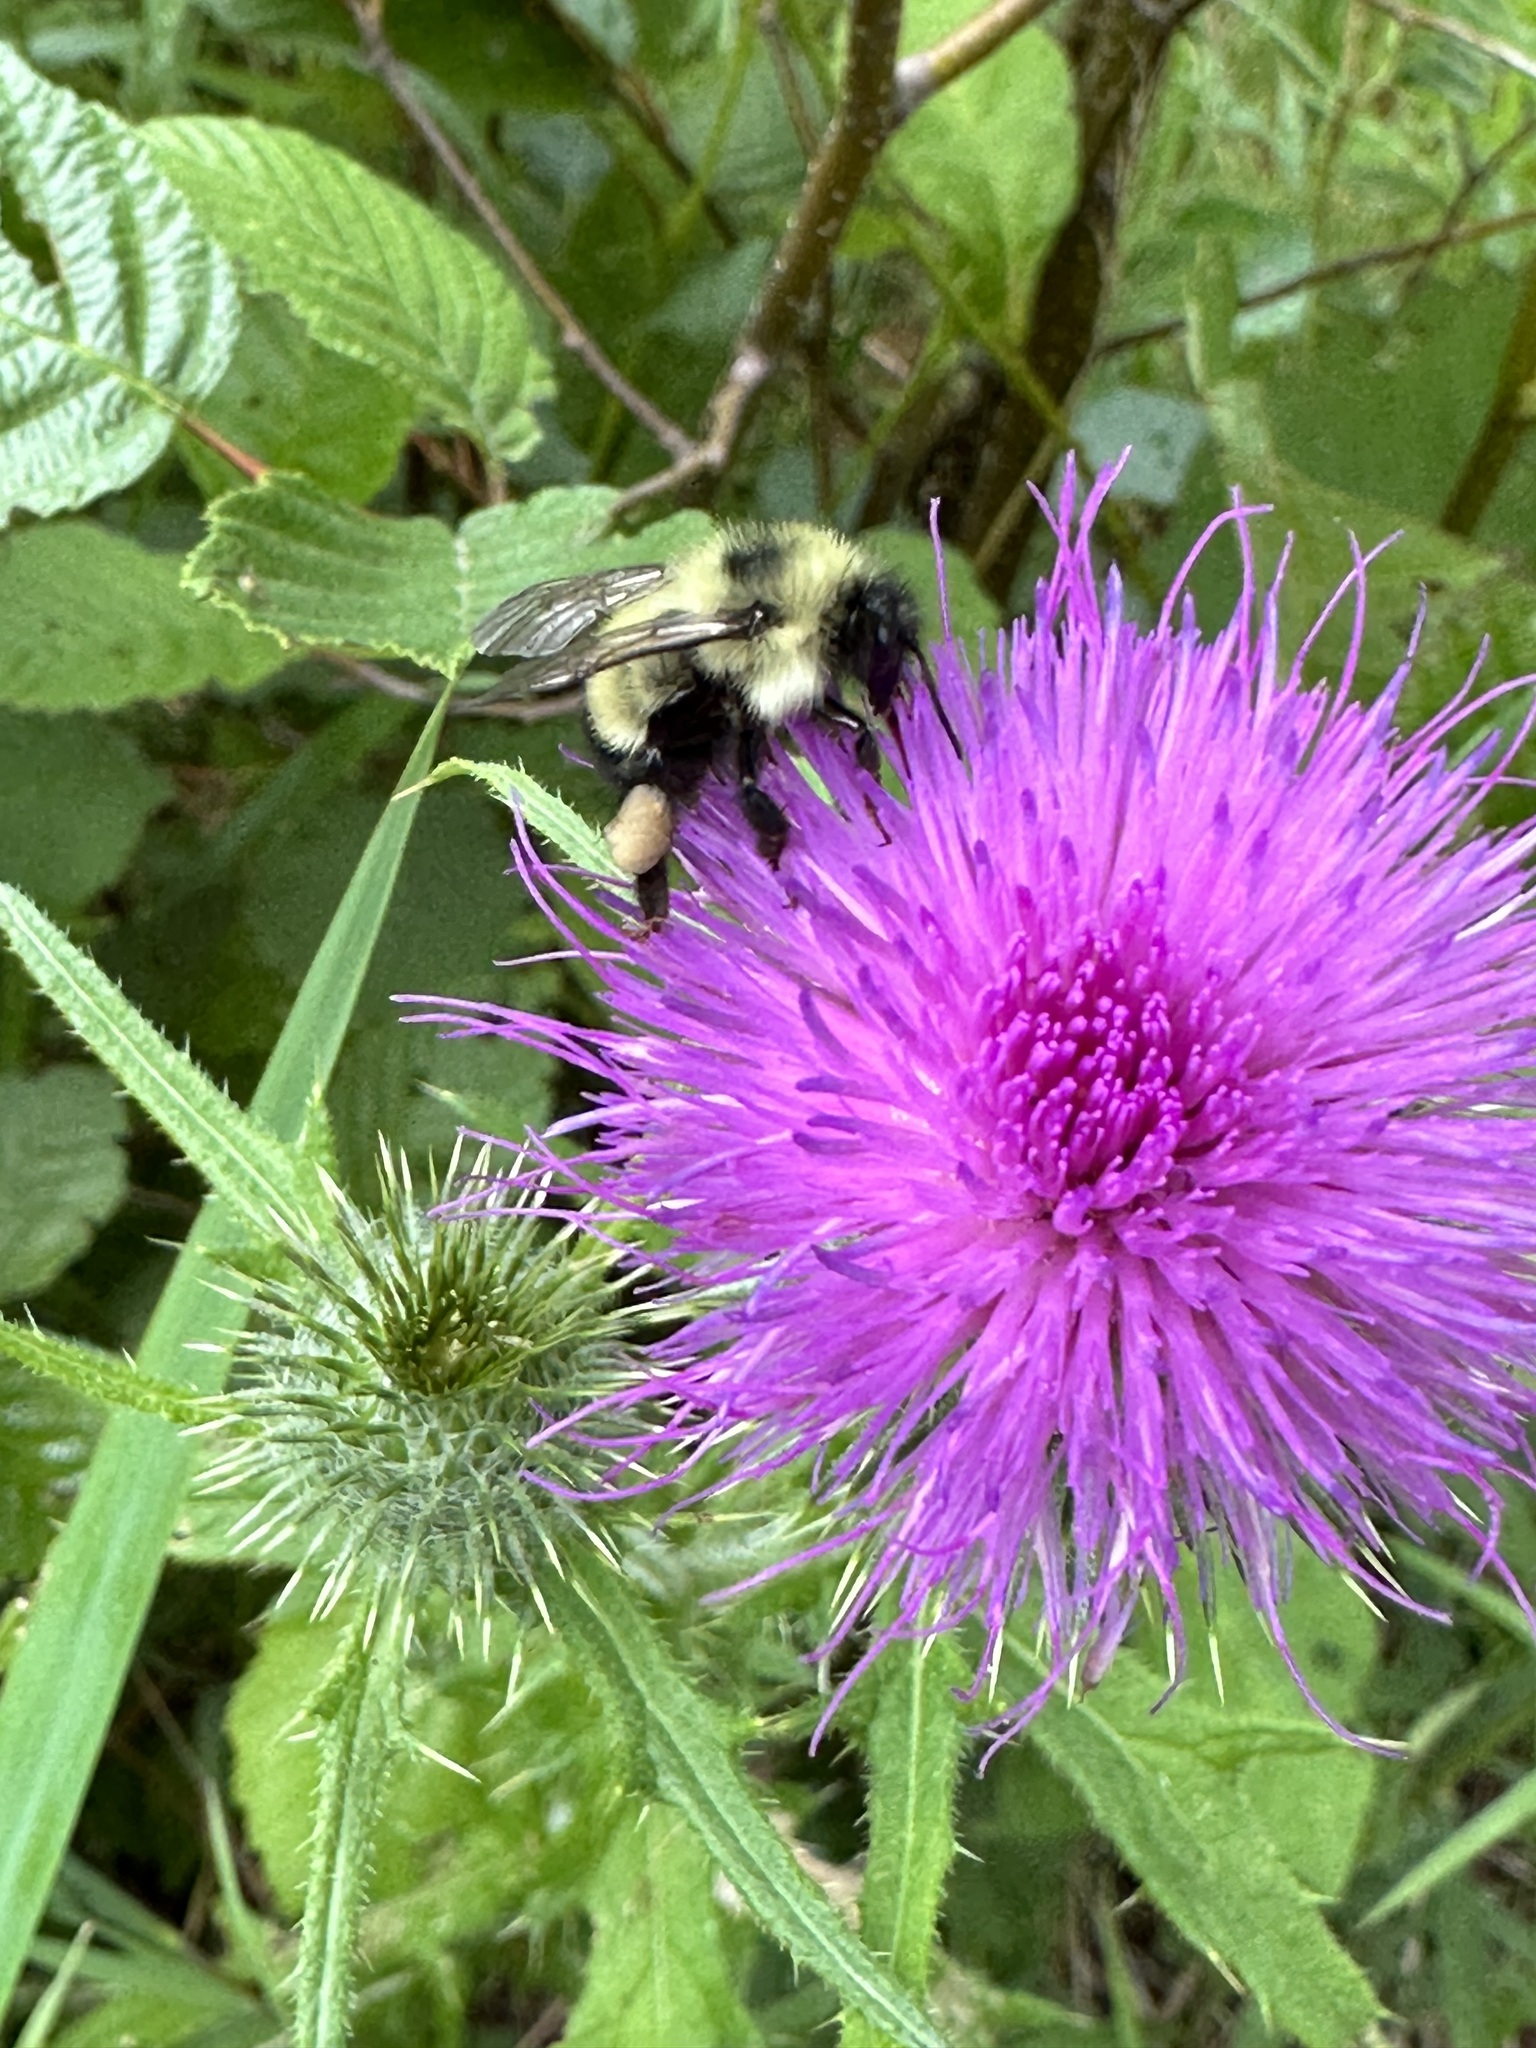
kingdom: Plantae
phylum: Tracheophyta
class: Magnoliopsida
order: Asterales
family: Asteraceae
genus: Cirsium
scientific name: Cirsium vulgare
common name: Bull thistle
